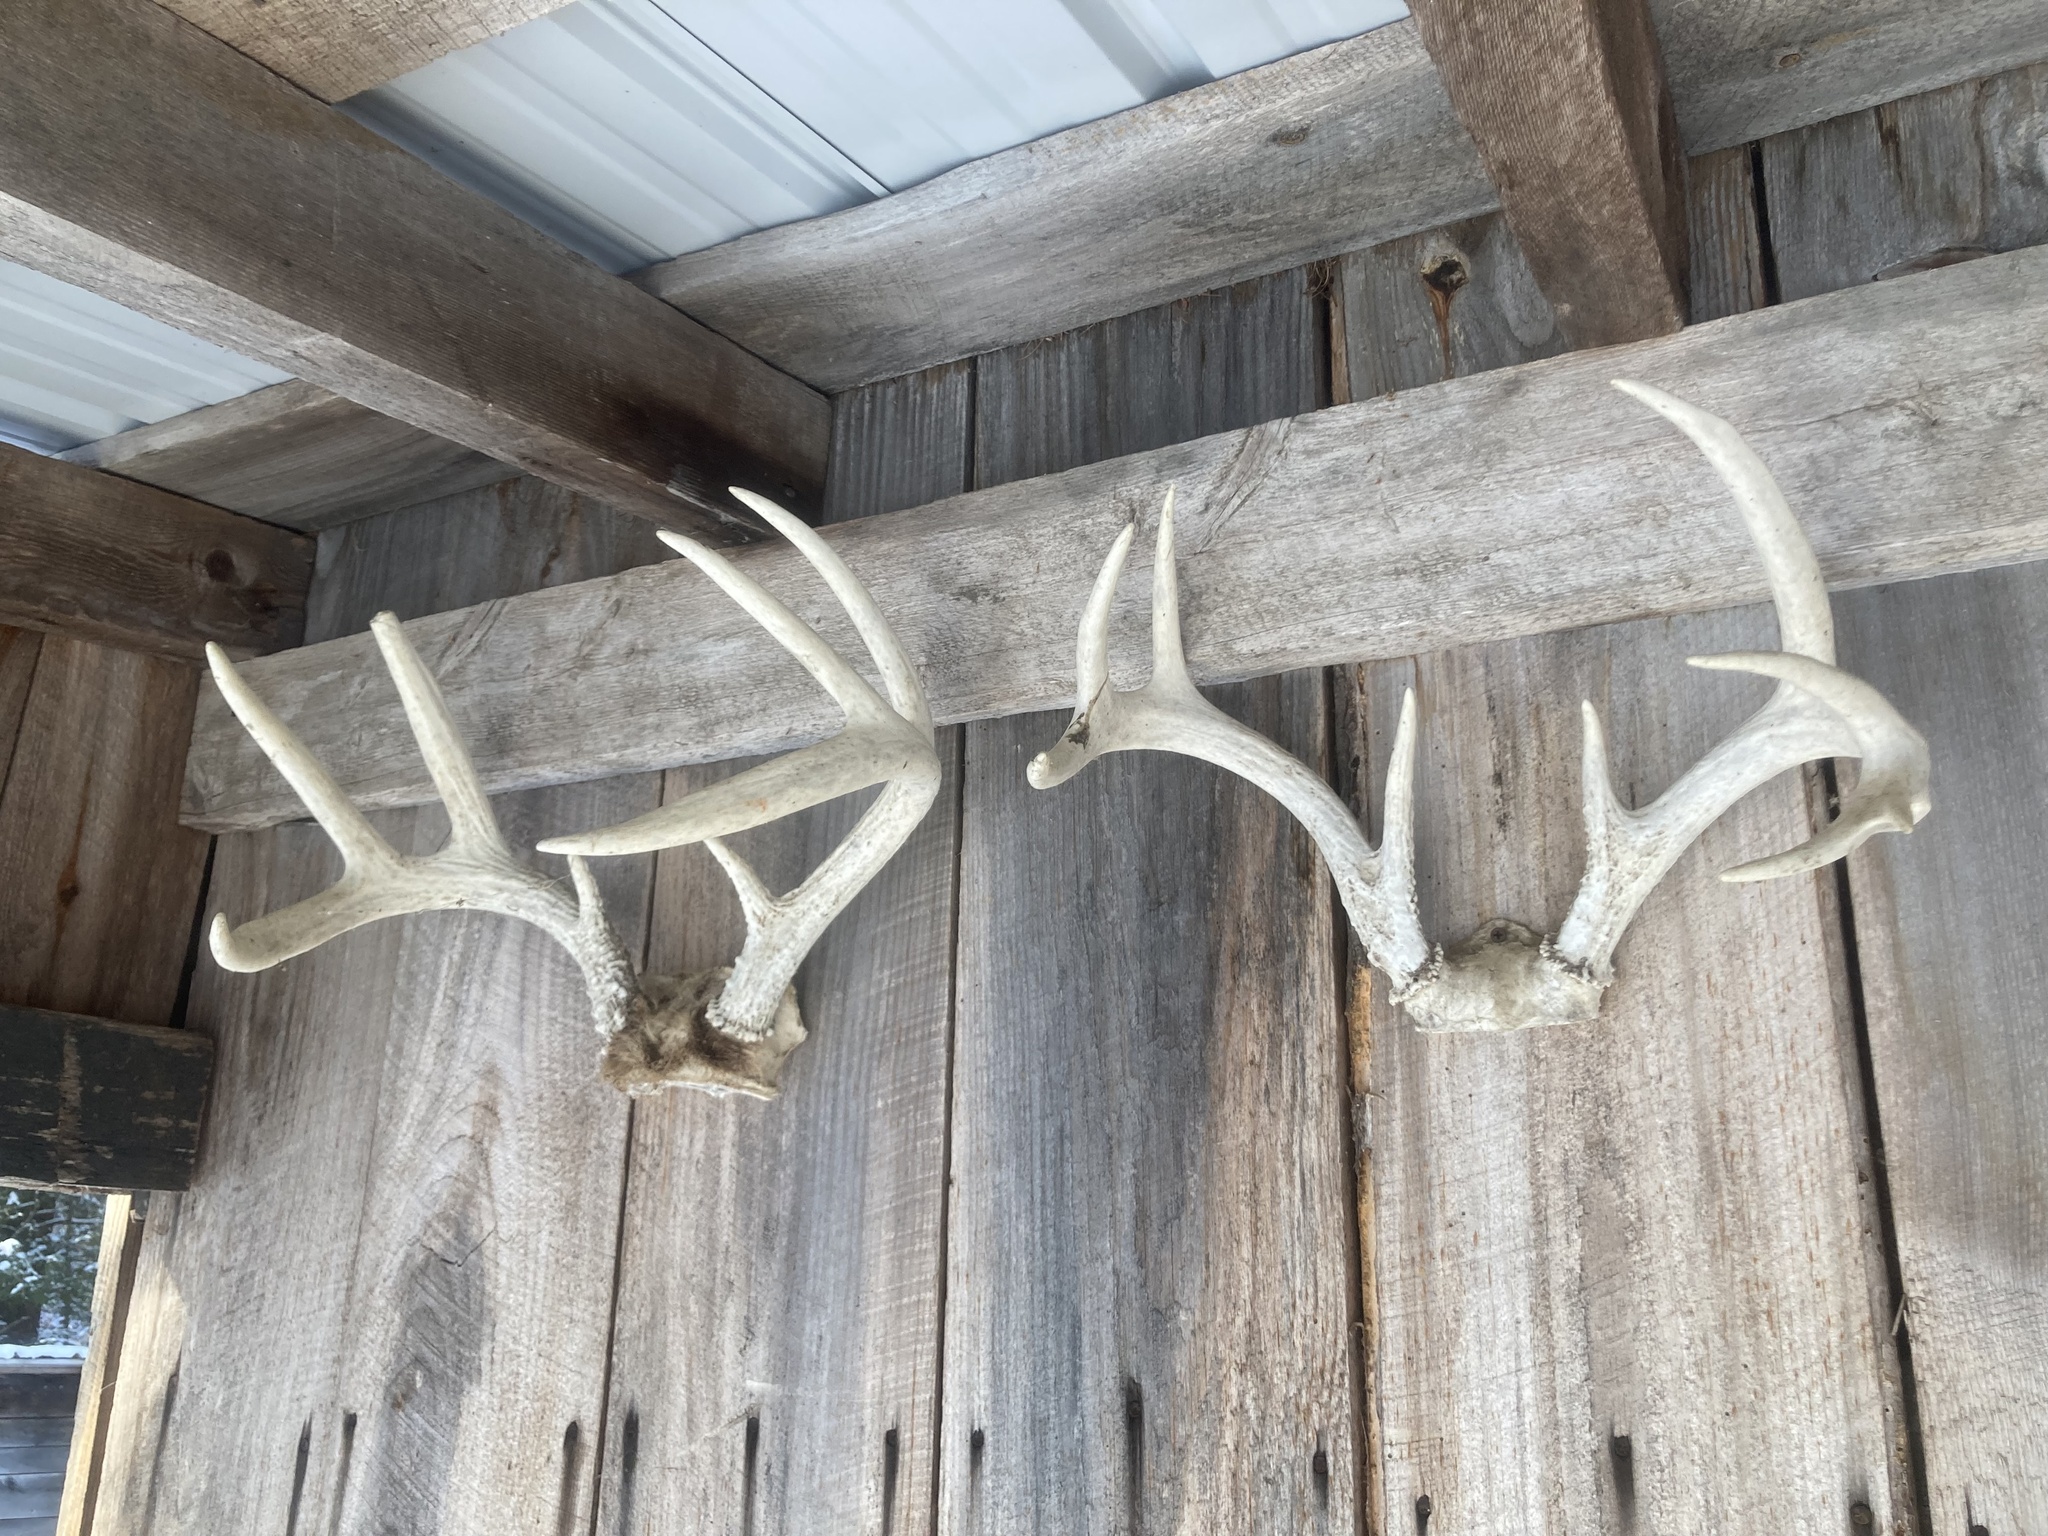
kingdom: Animalia
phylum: Chordata
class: Mammalia
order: Artiodactyla
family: Cervidae
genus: Odocoileus
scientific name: Odocoileus virginianus
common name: White-tailed deer
